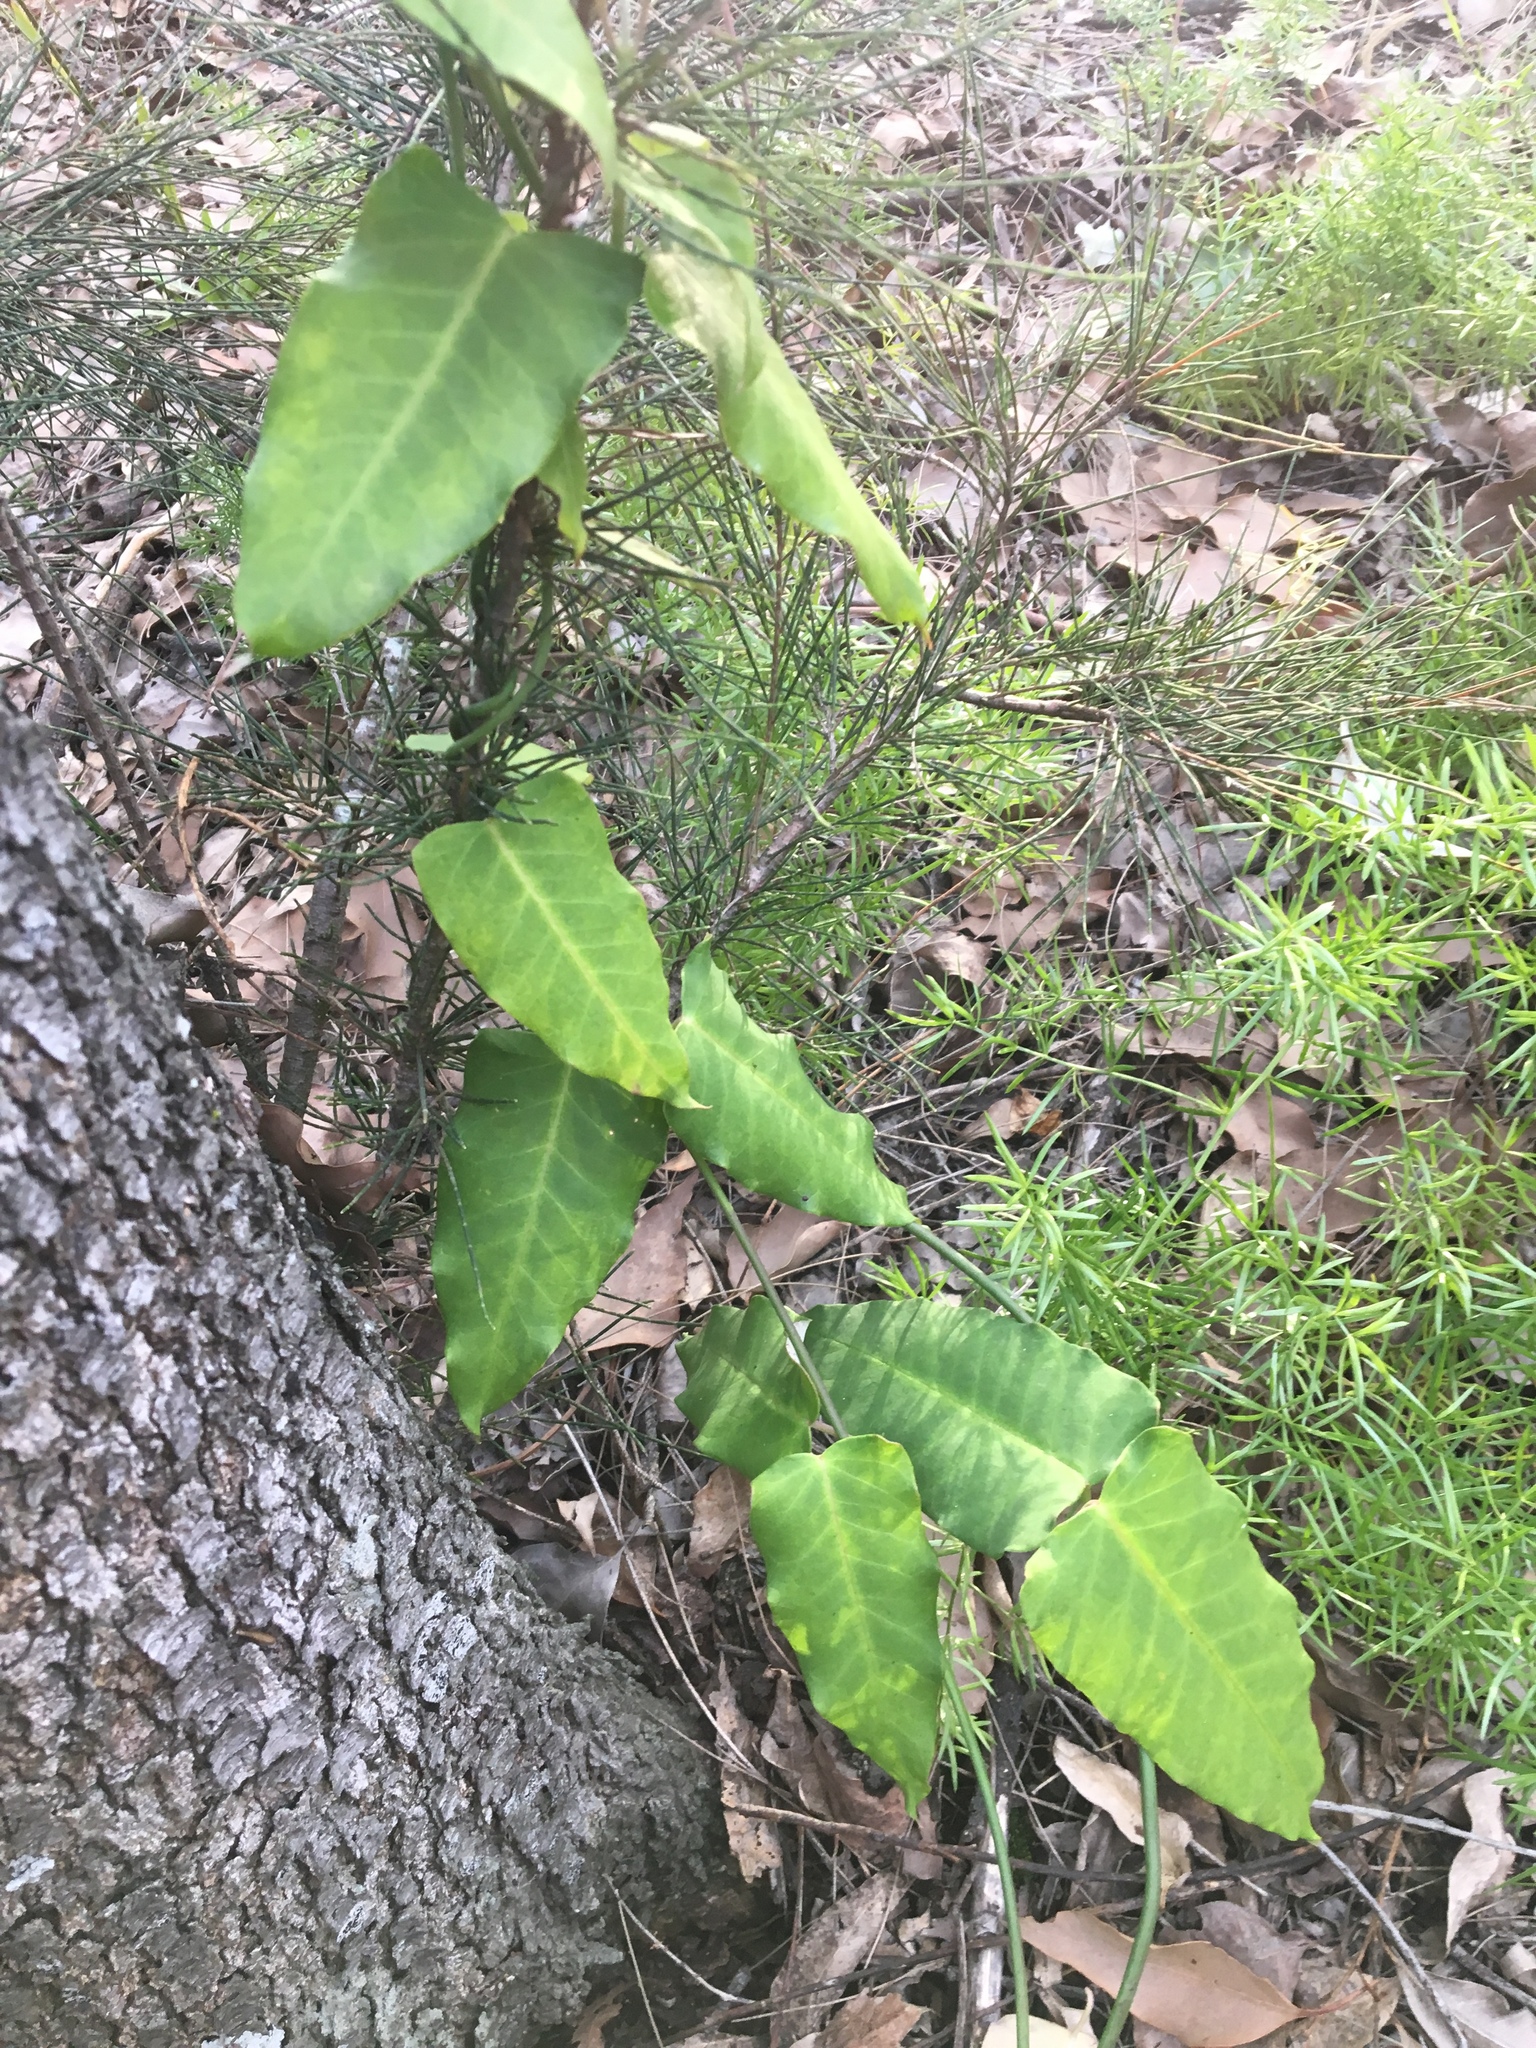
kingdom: Plantae
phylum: Tracheophyta
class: Magnoliopsida
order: Gentianales
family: Apocynaceae
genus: Araujia
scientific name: Araujia sericifera
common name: White bladderflower
